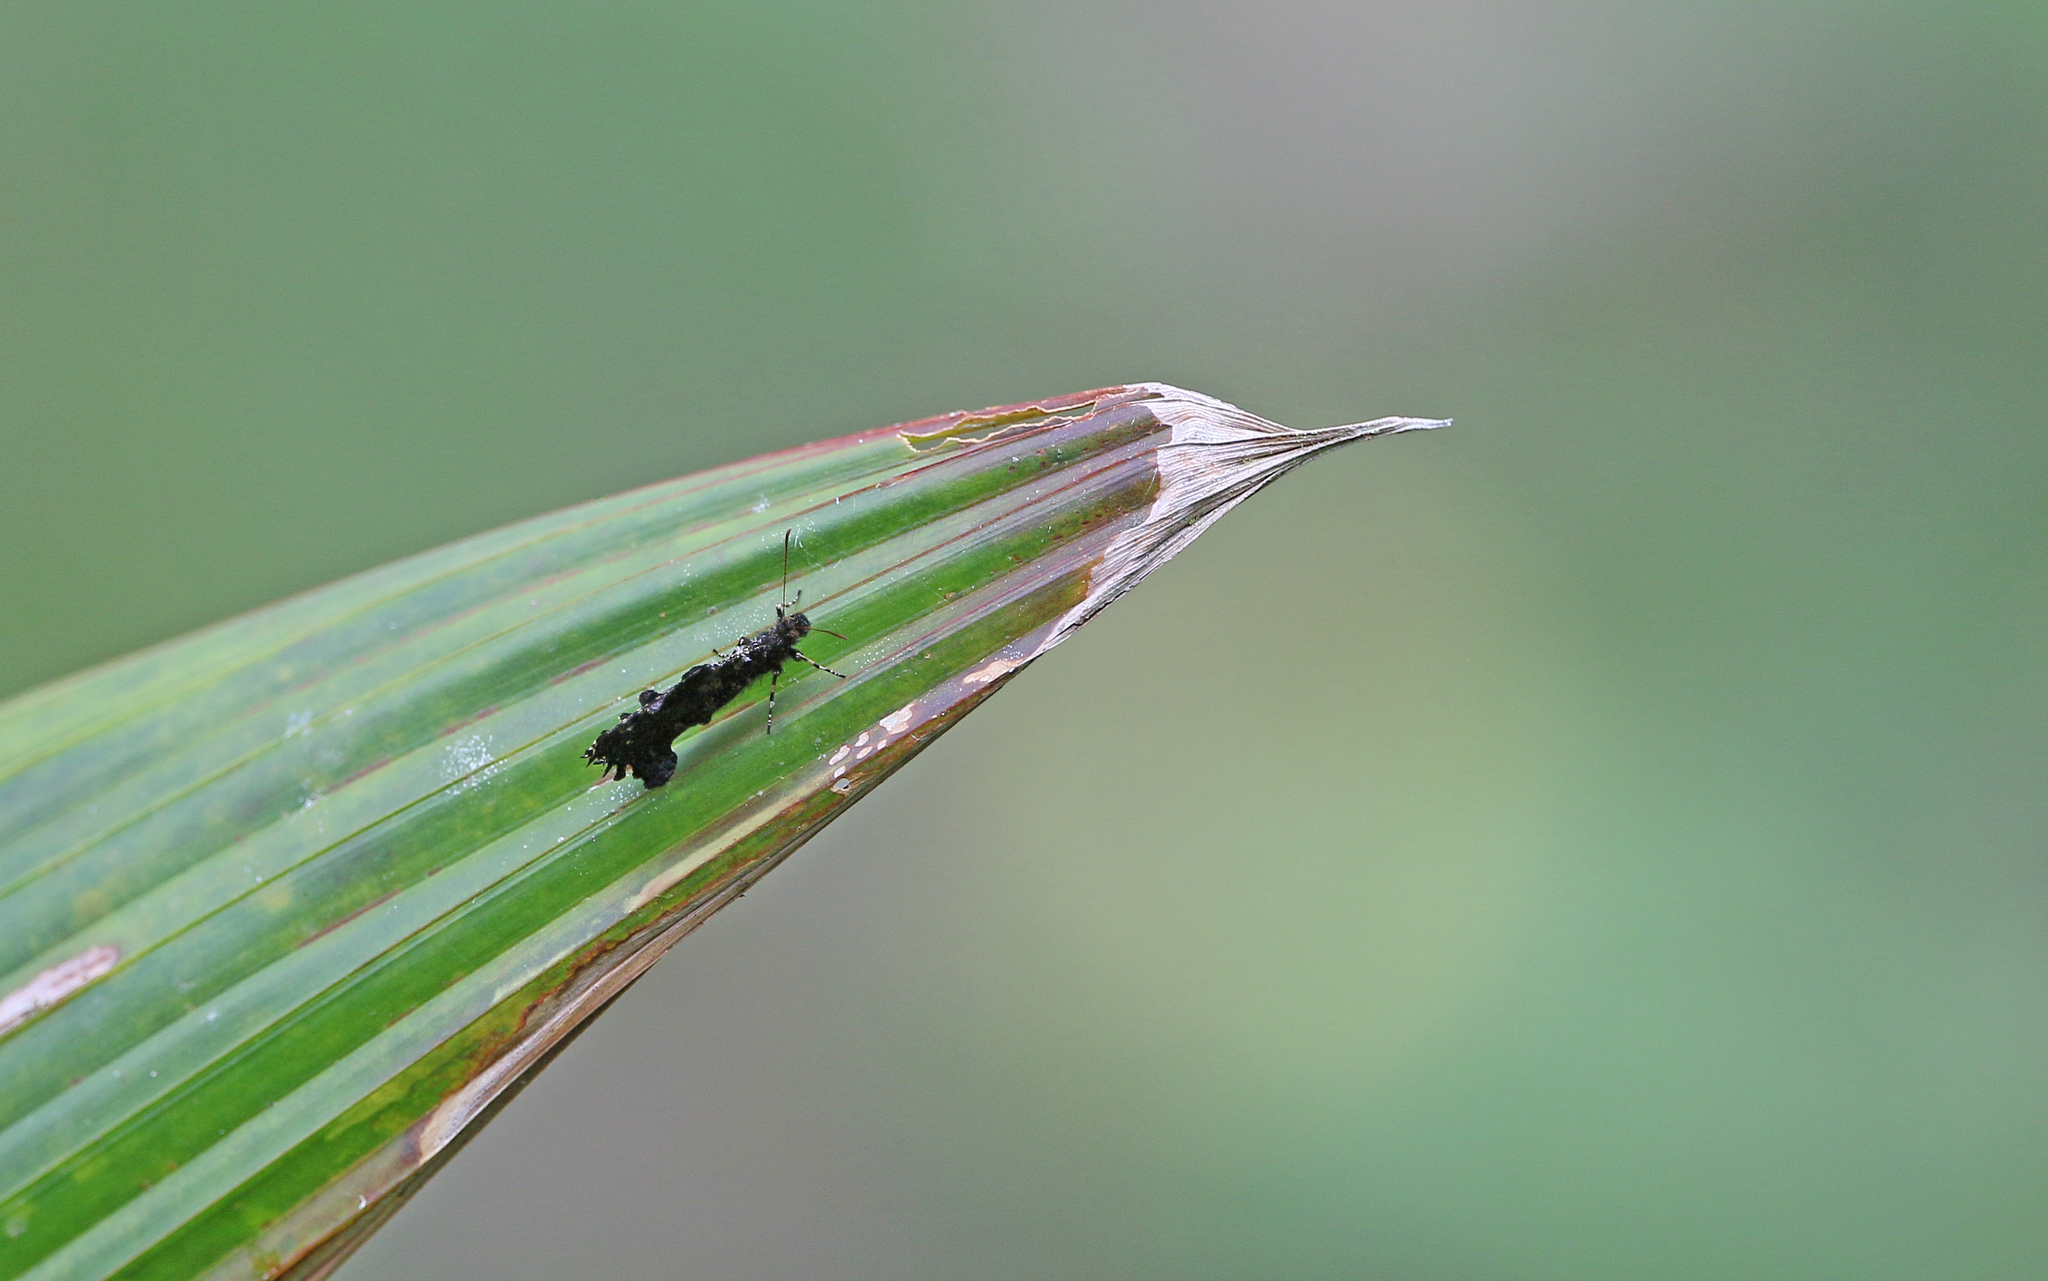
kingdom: Animalia
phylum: Arthropoda
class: Insecta
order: Lepidoptera
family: Nymphalidae
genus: Steroma
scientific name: Steroma bega
